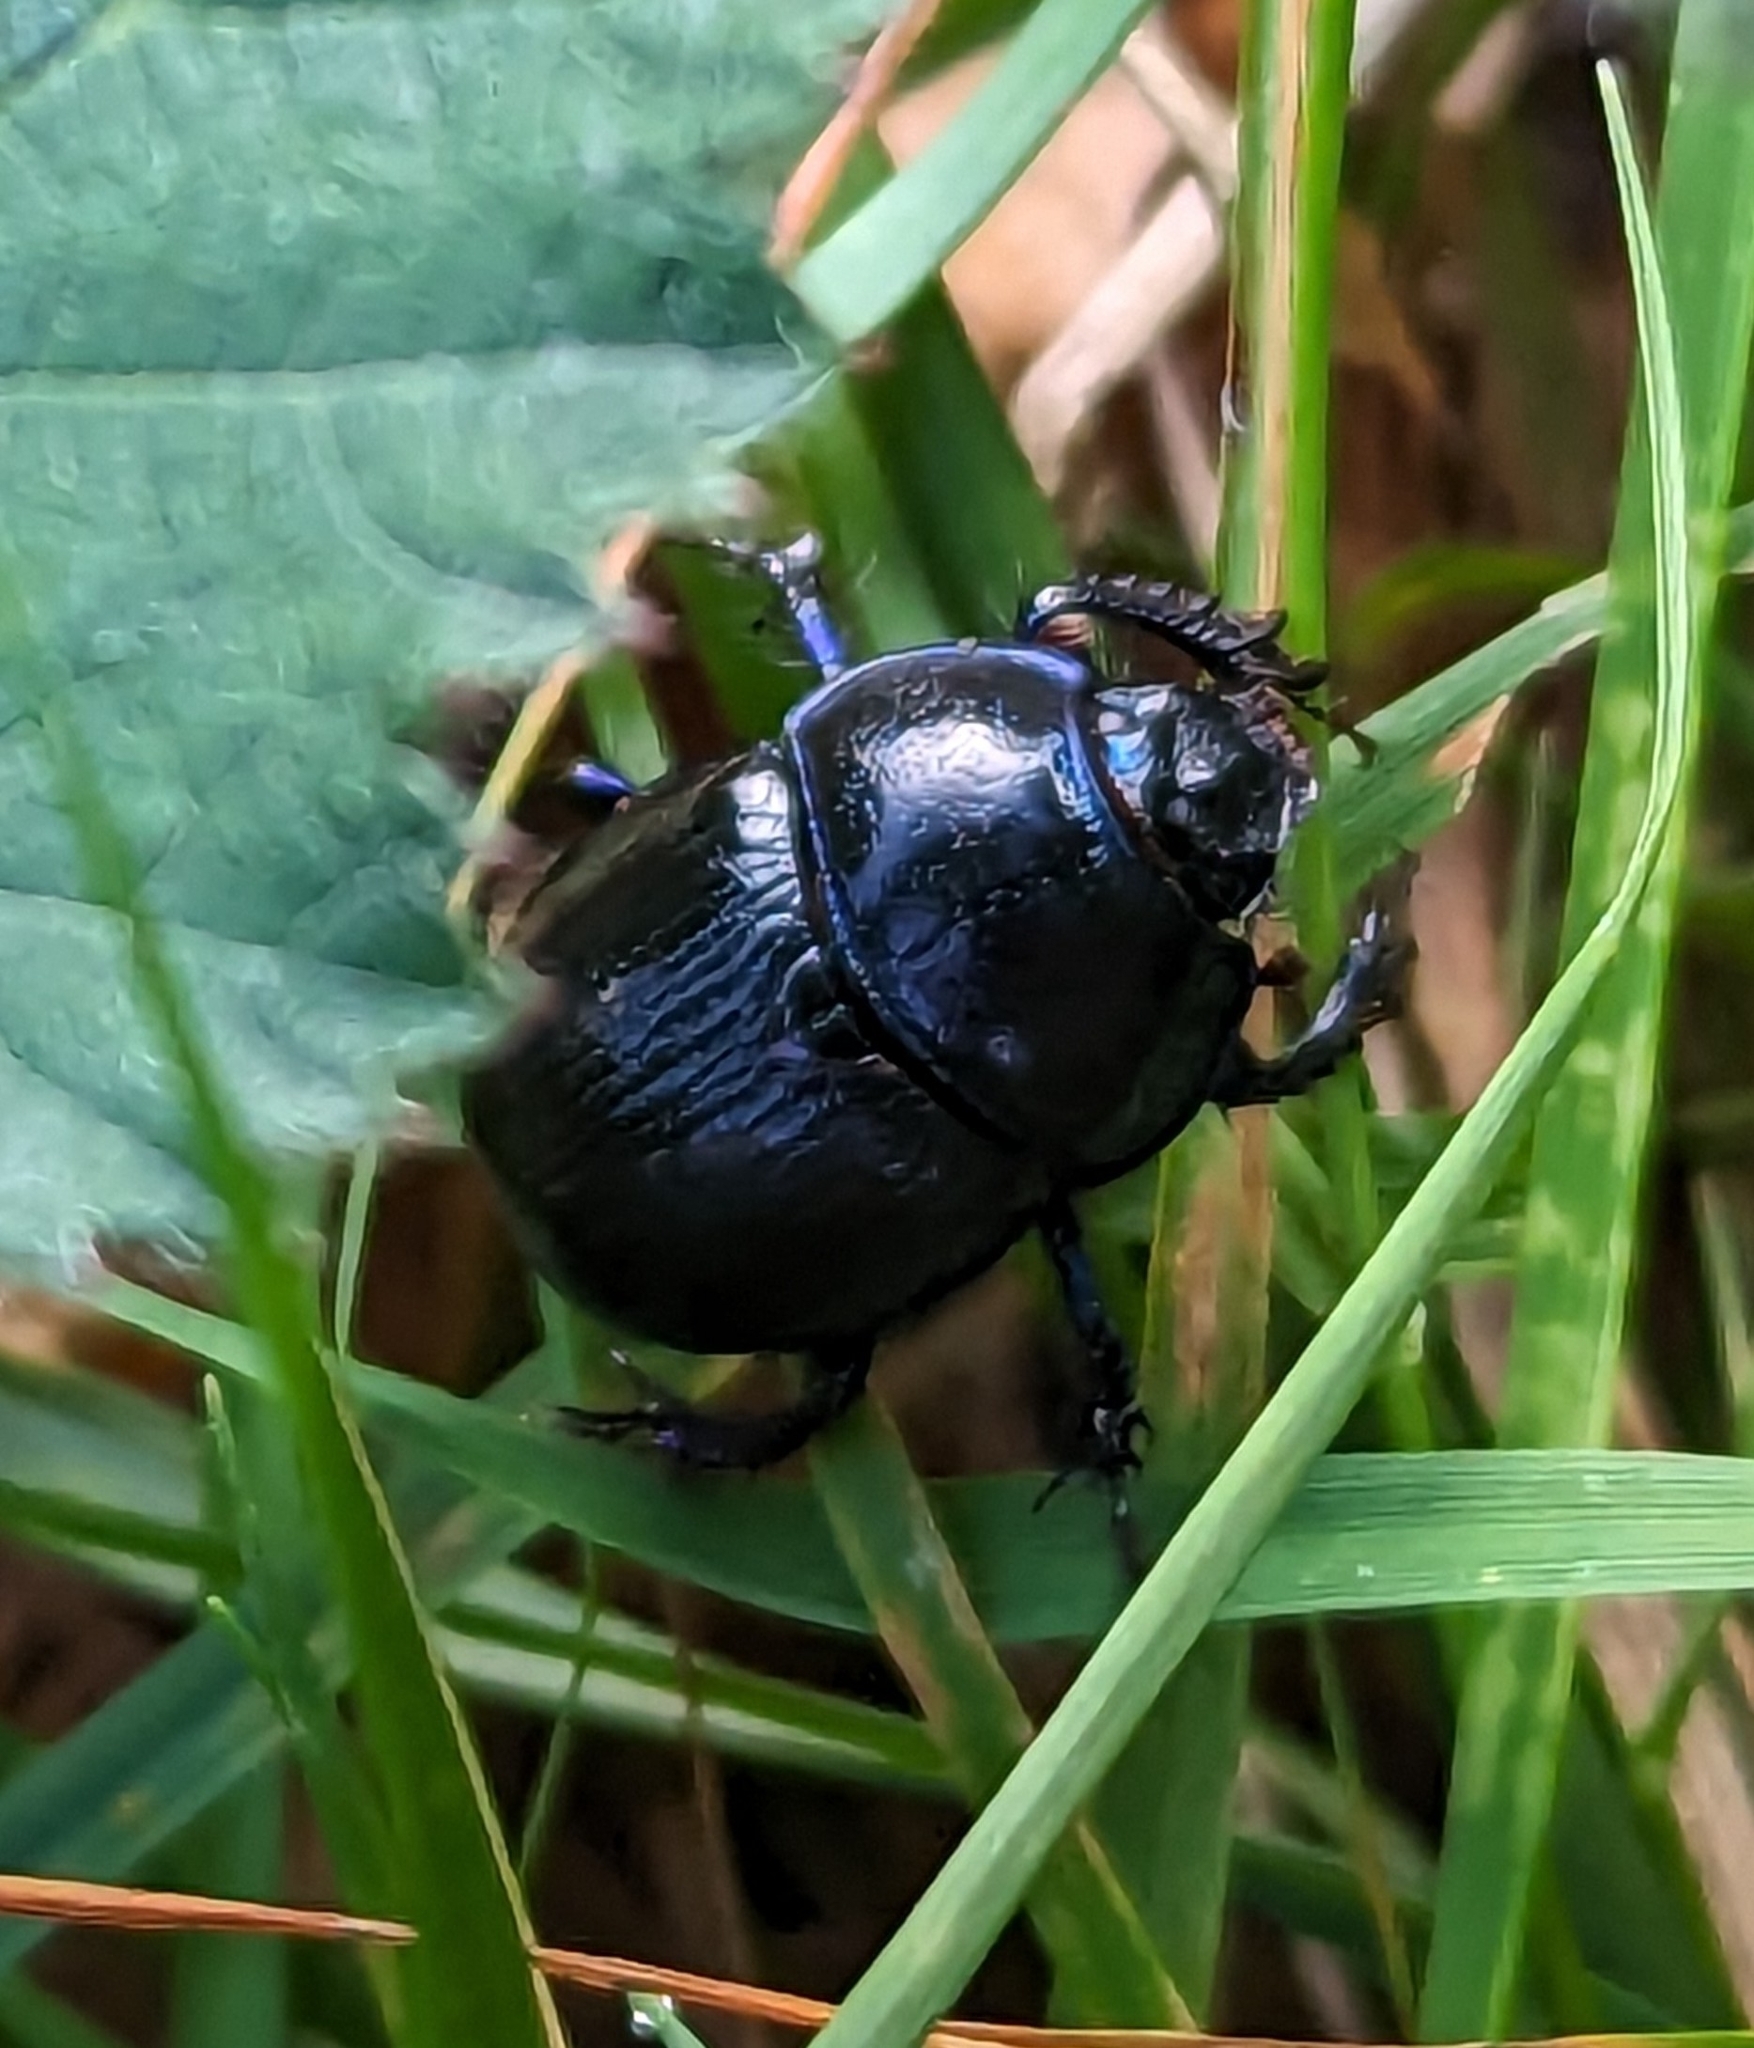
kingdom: Animalia
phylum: Arthropoda
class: Insecta
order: Coleoptera
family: Geotrupidae
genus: Anoplotrupes
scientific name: Anoplotrupes stercorosus
